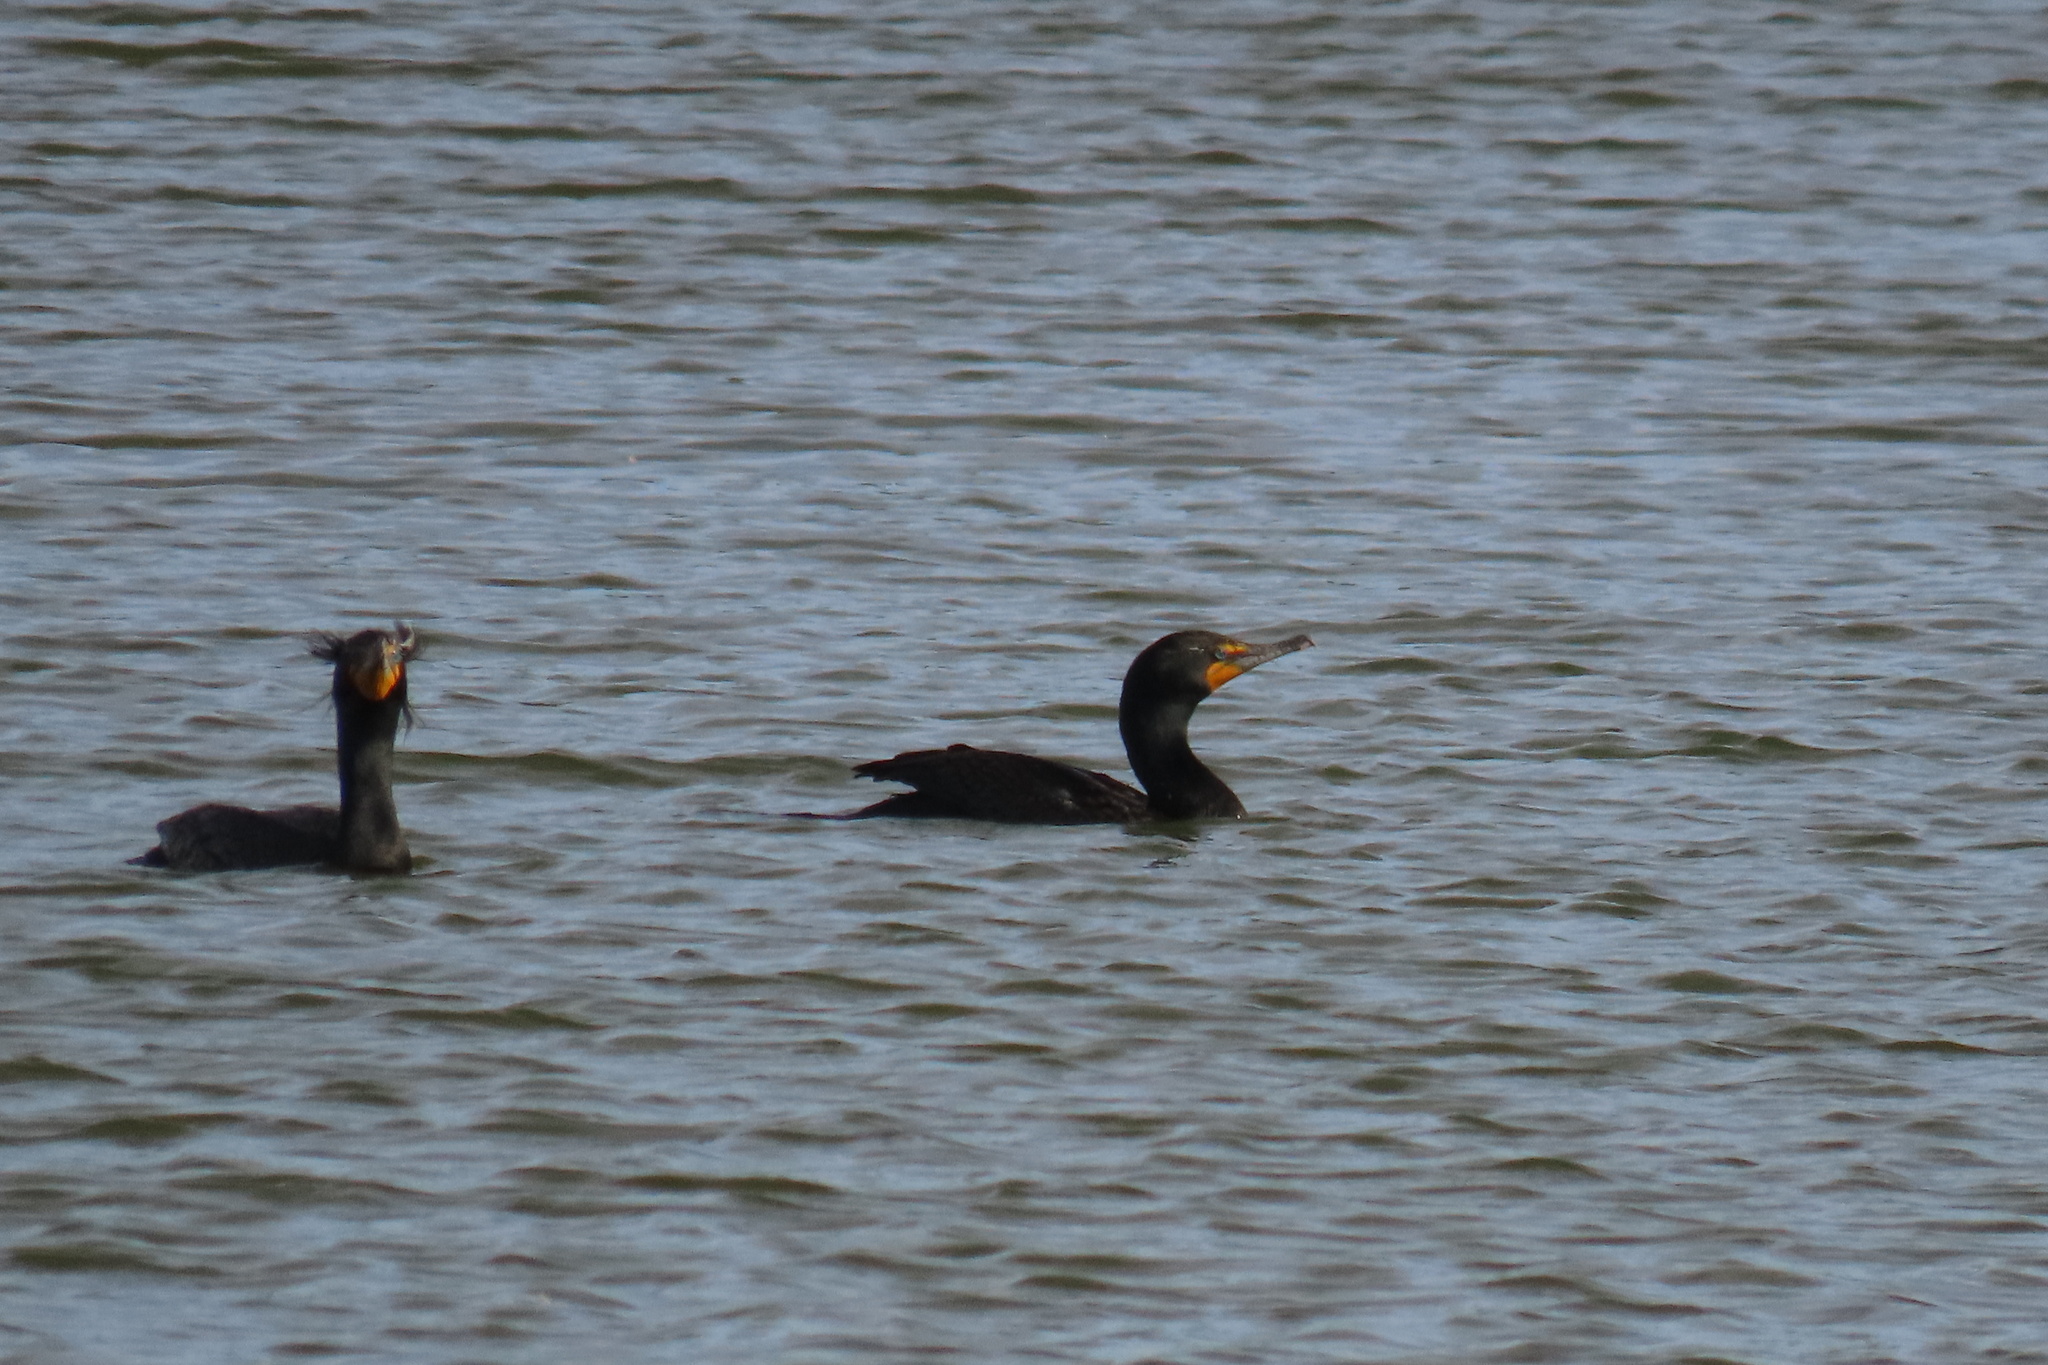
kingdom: Animalia
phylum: Chordata
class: Aves
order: Suliformes
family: Phalacrocoracidae
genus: Phalacrocorax
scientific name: Phalacrocorax auritus
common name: Double-crested cormorant
